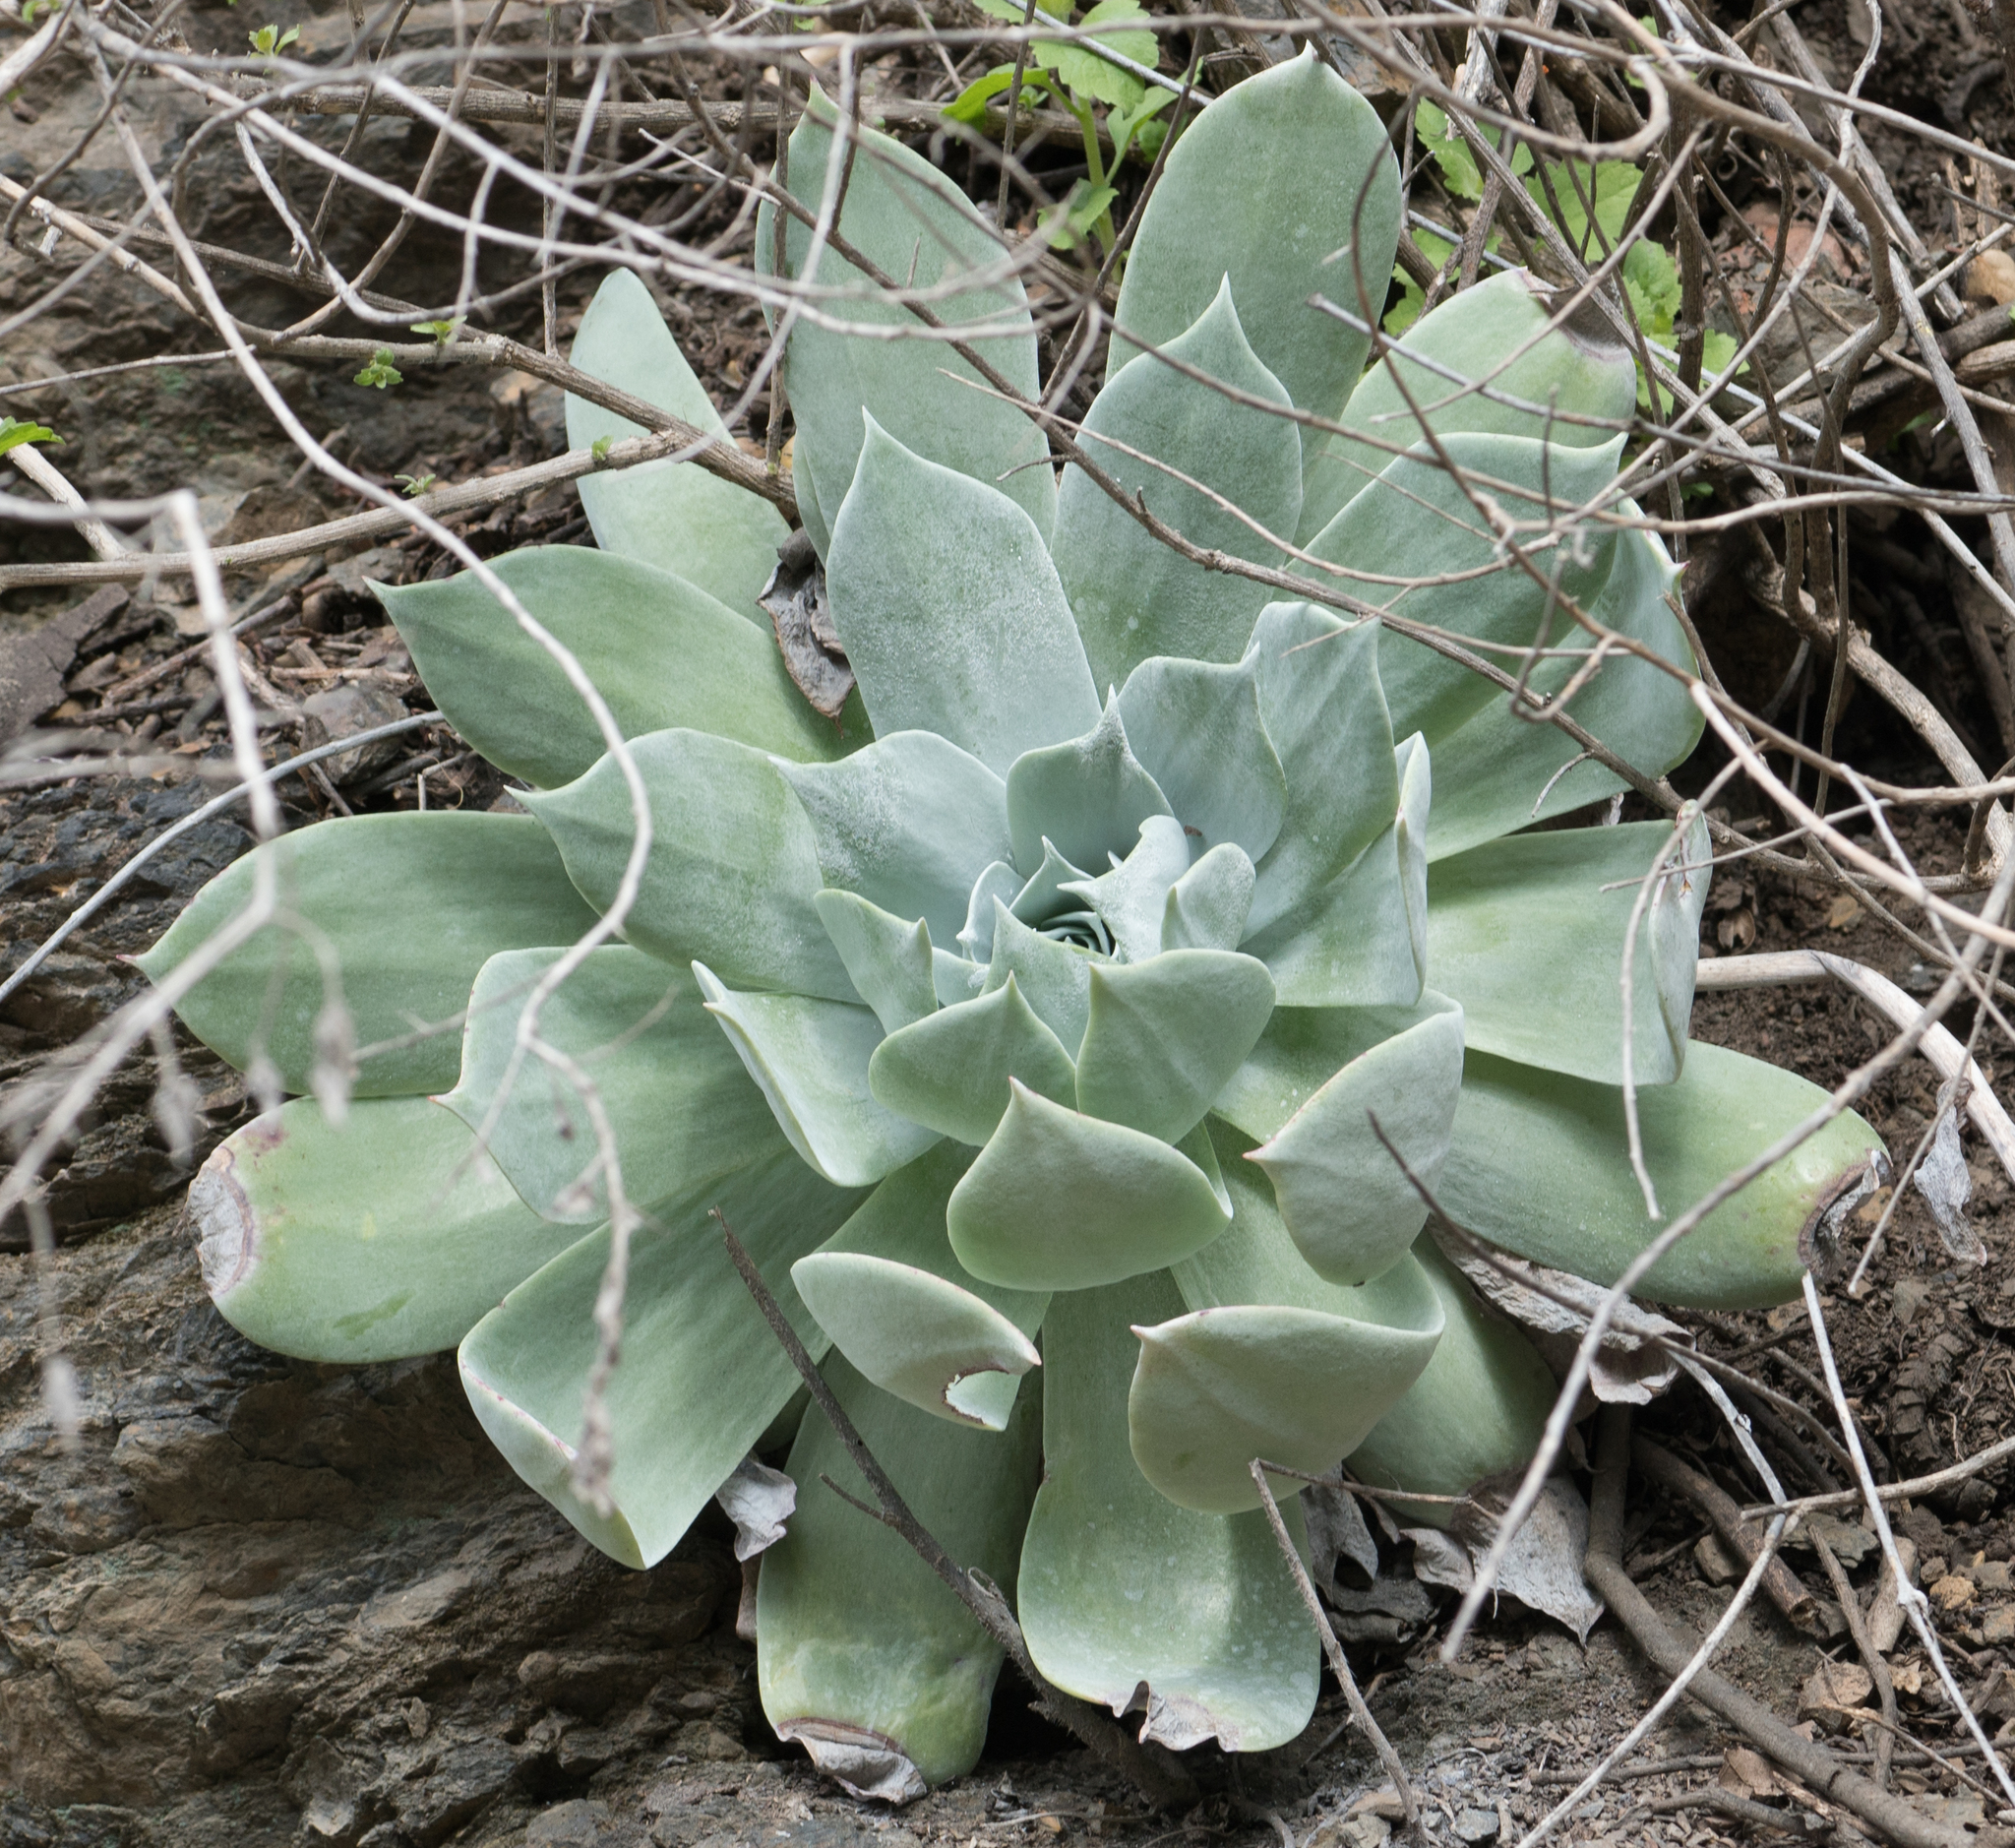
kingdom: Plantae
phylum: Tracheophyta
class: Magnoliopsida
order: Saxifragales
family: Crassulaceae
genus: Dudleya
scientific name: Dudleya pulverulenta
